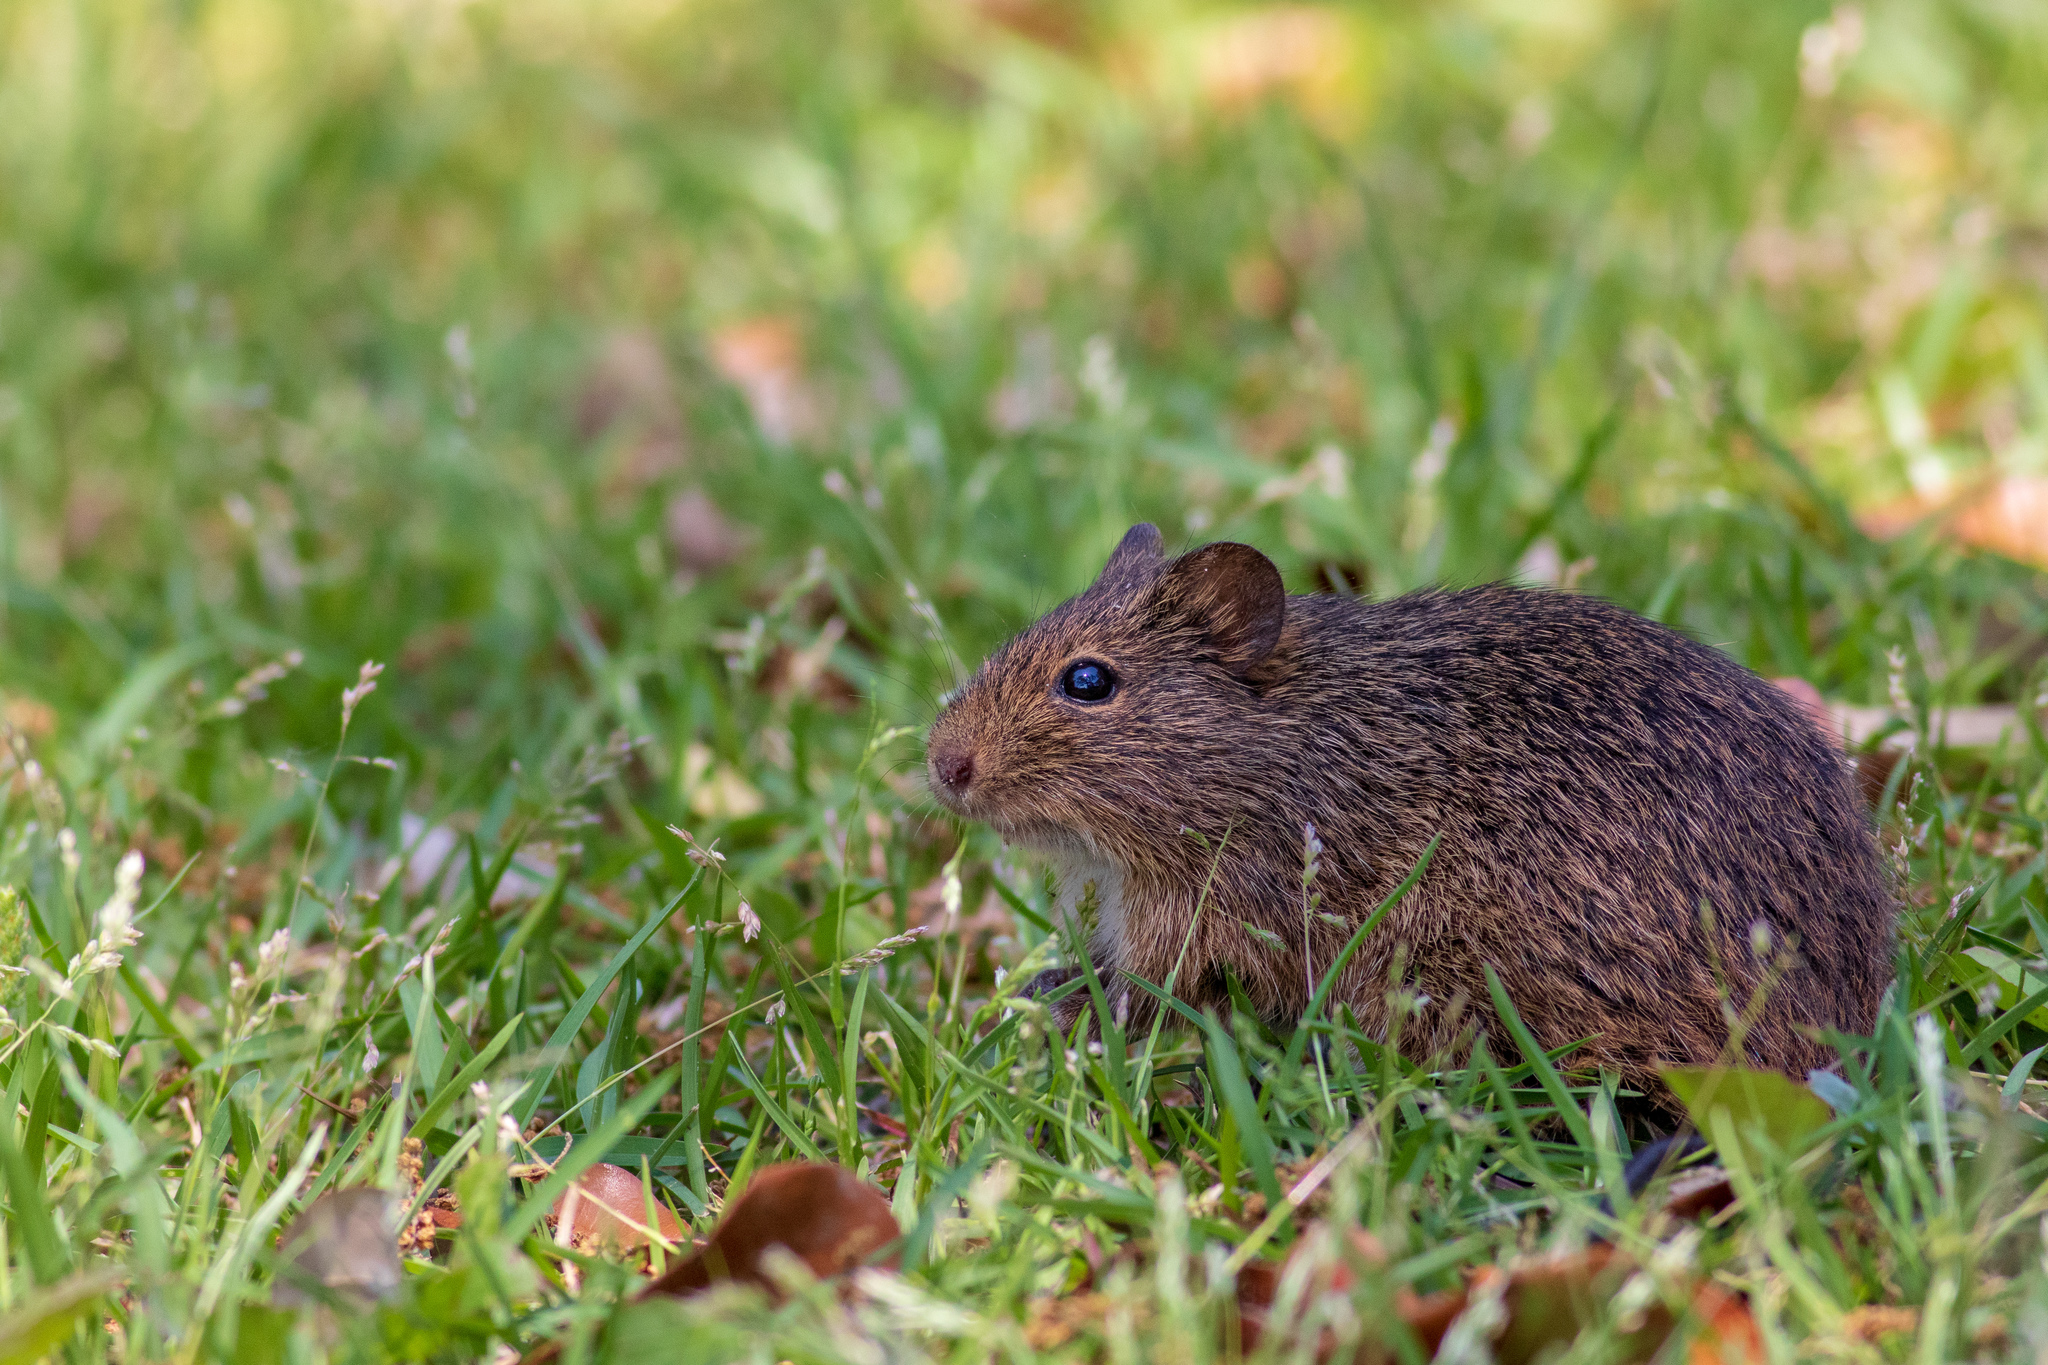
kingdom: Animalia
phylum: Chordata
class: Mammalia
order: Rodentia
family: Cricetidae
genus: Sigmodon
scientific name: Sigmodon hispidus
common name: Hispid cotton rat
